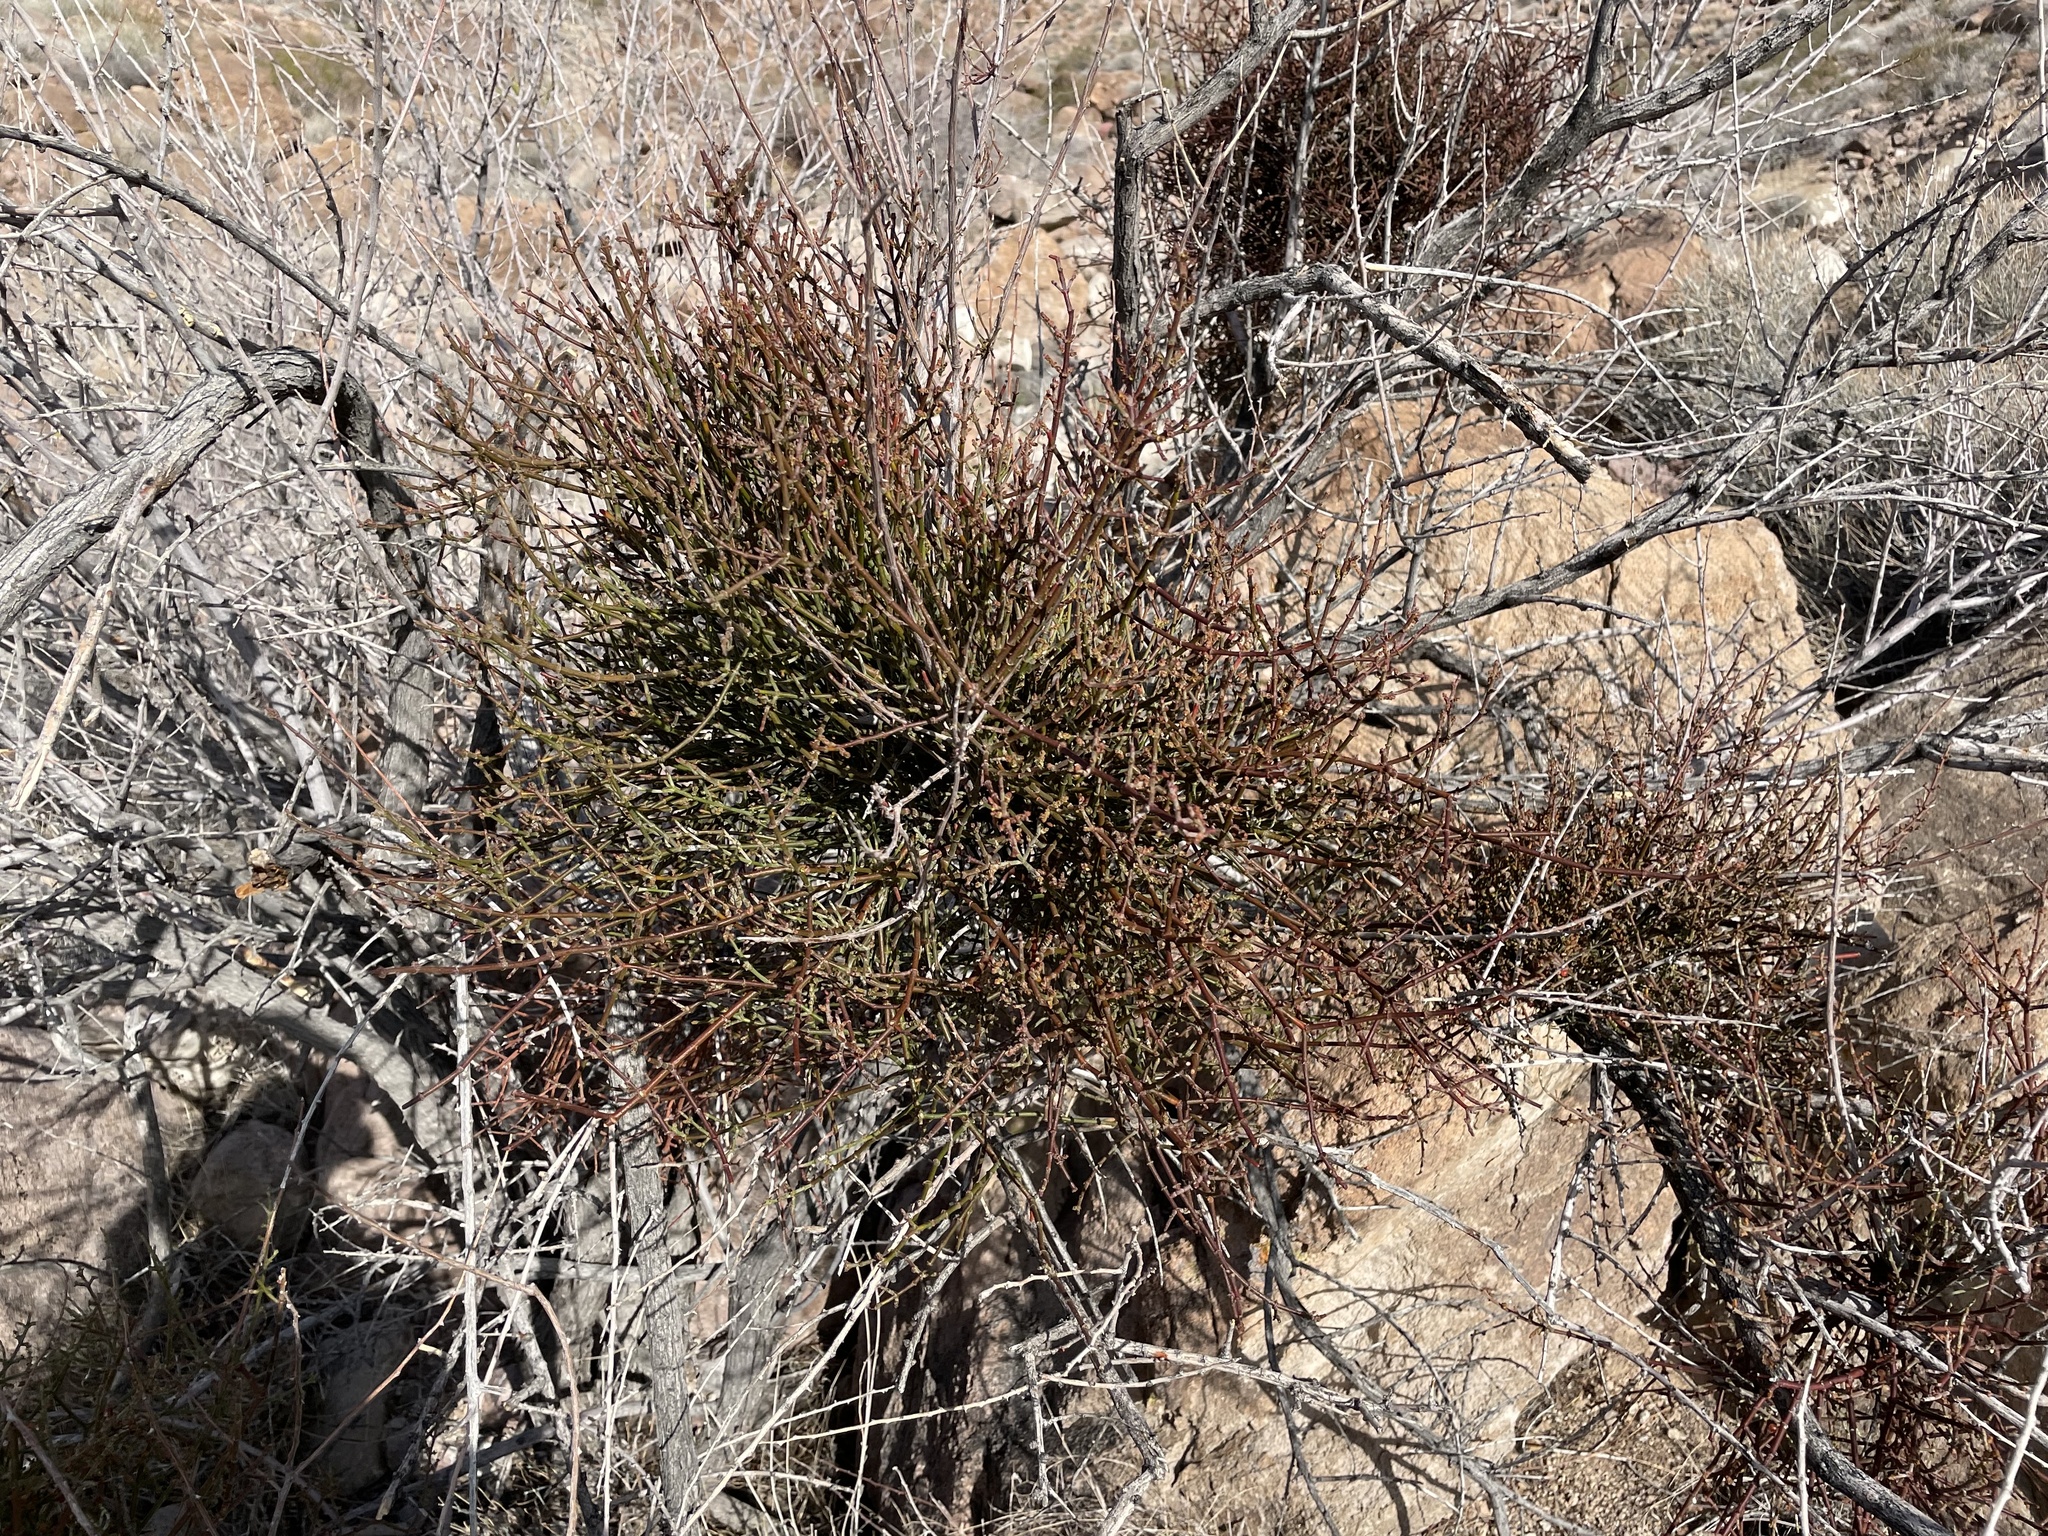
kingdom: Plantae
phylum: Tracheophyta
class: Magnoliopsida
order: Santalales
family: Viscaceae
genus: Phoradendron
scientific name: Phoradendron californicum
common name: Acacia mistletoe
